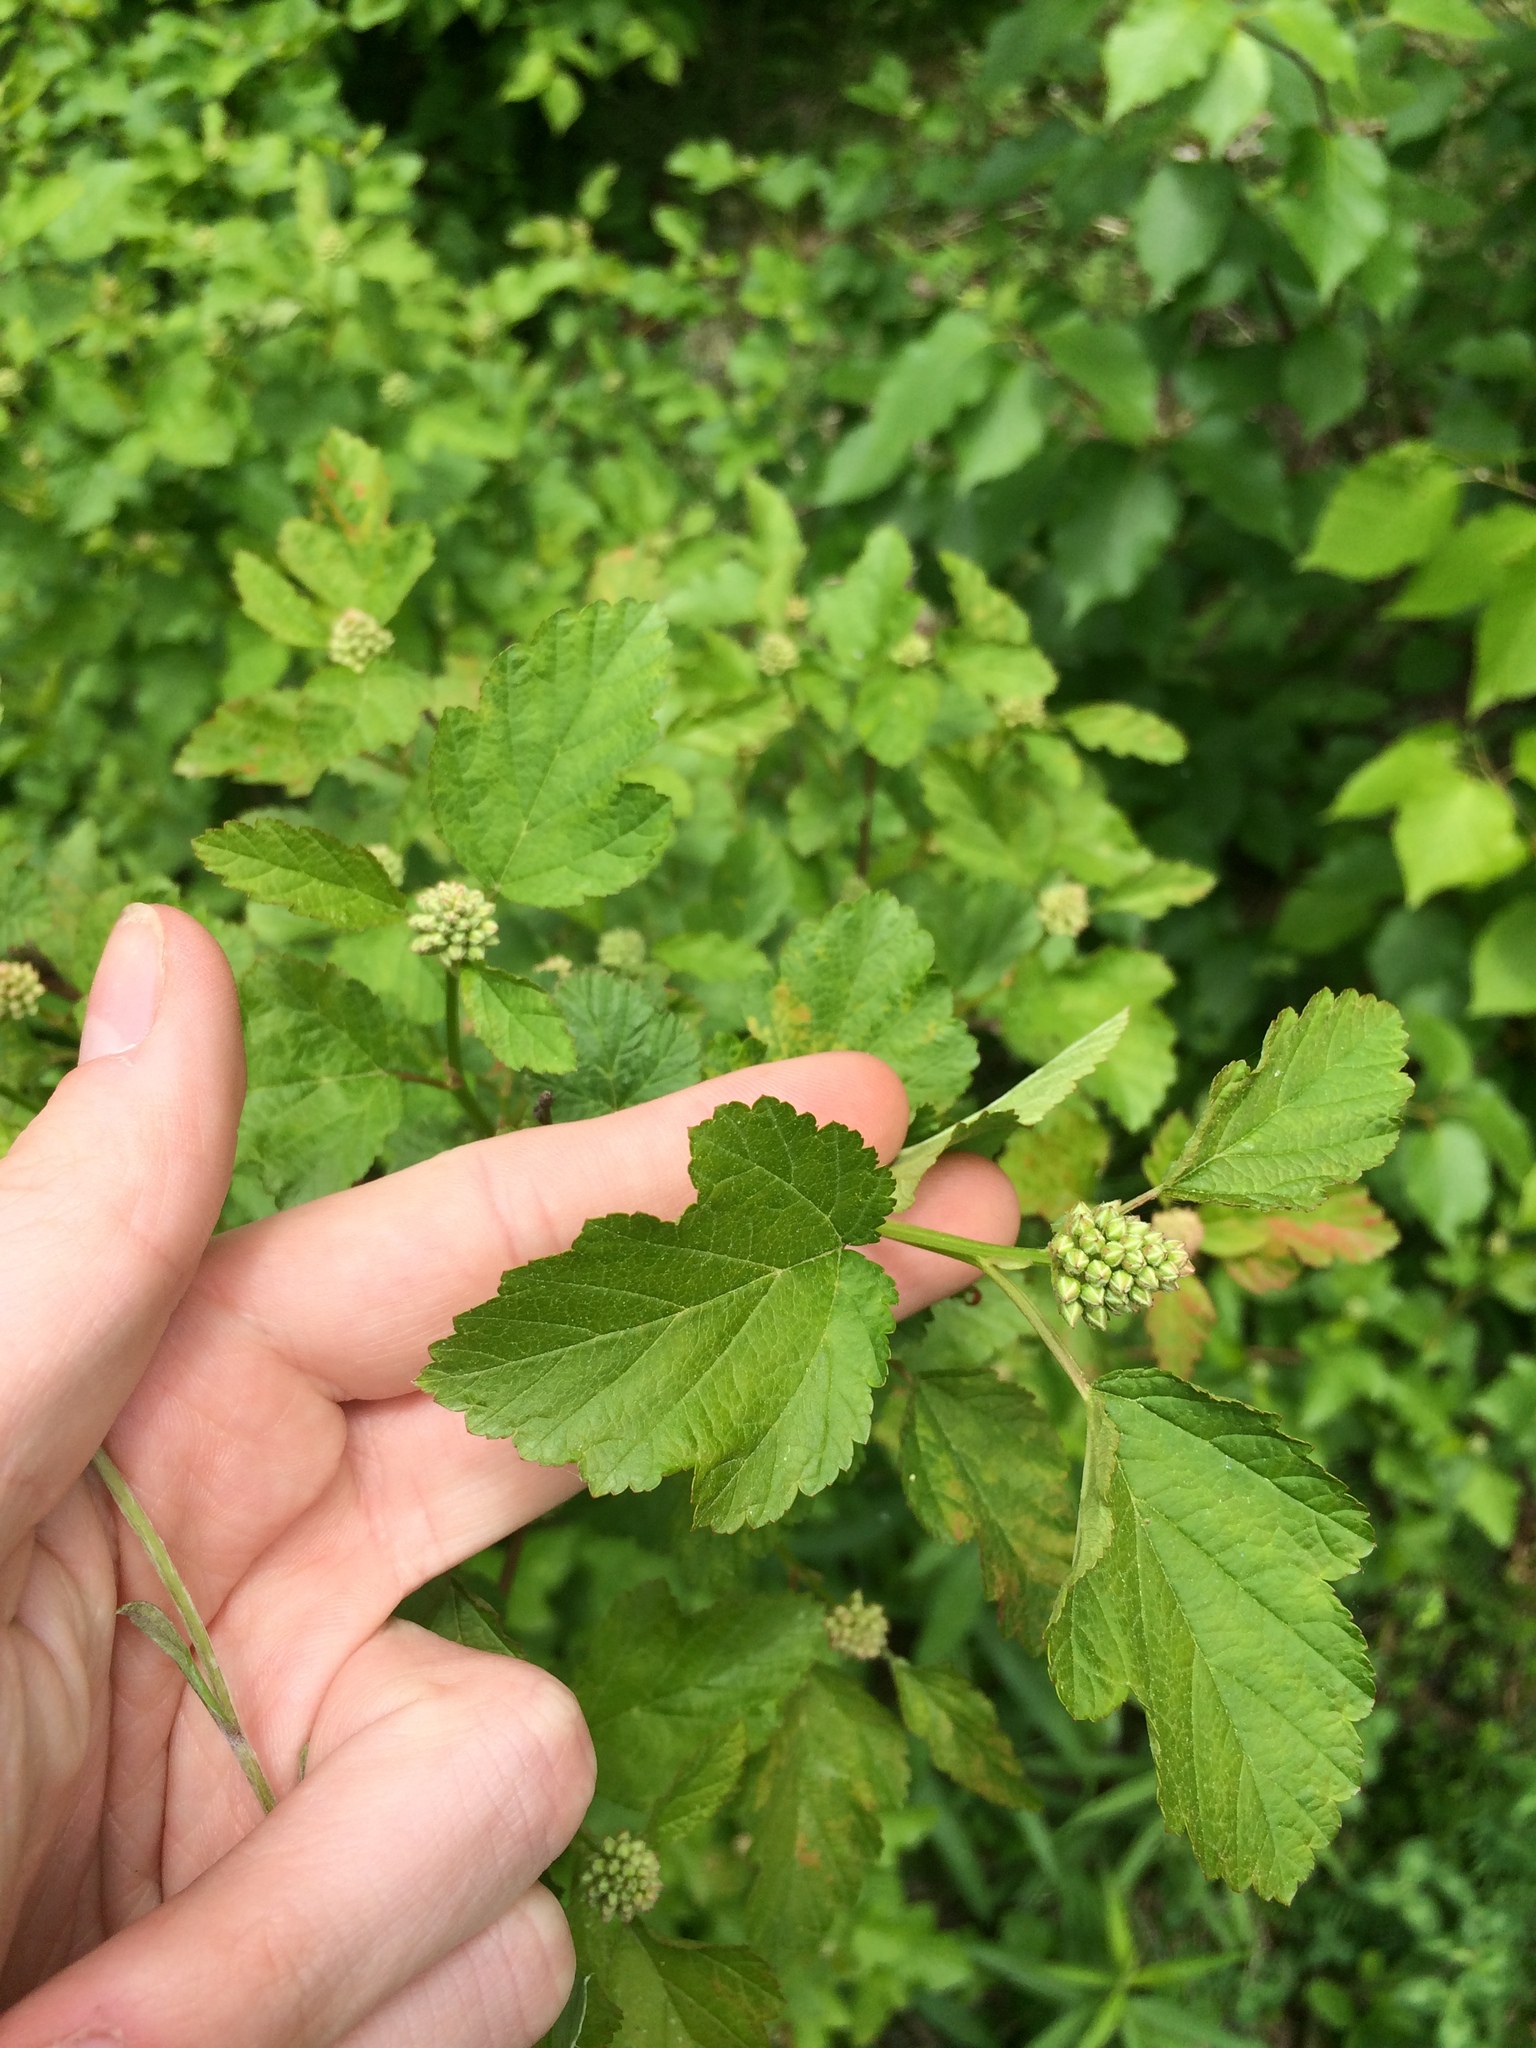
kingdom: Plantae
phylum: Tracheophyta
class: Magnoliopsida
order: Rosales
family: Rosaceae
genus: Physocarpus
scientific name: Physocarpus opulifolius
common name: Ninebark
